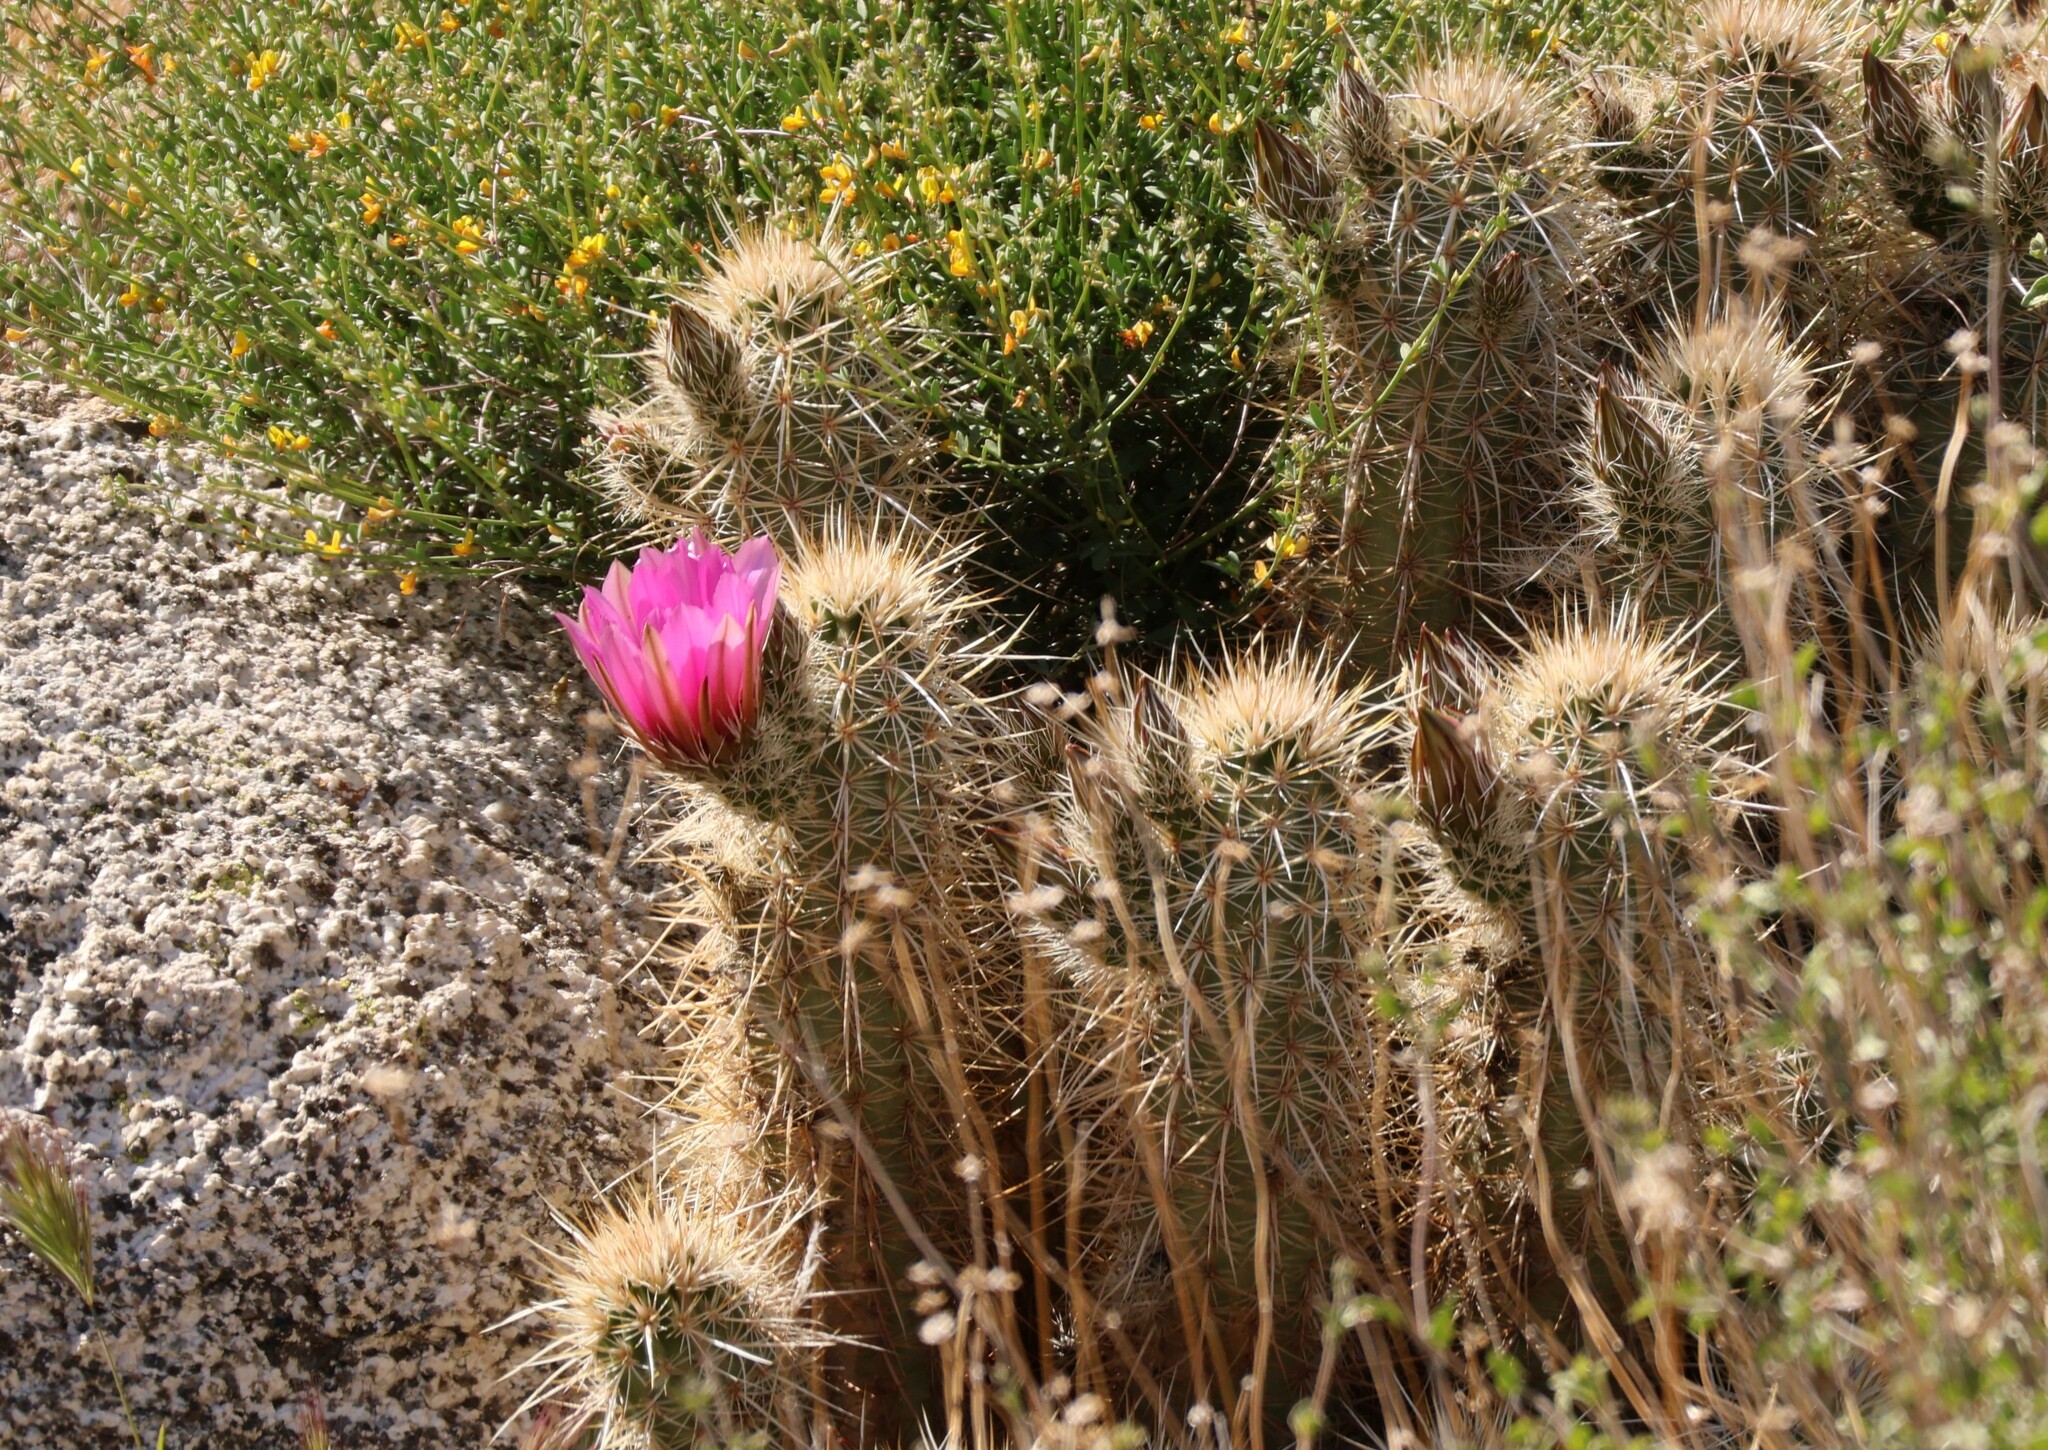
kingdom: Plantae
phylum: Tracheophyta
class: Magnoliopsida
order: Caryophyllales
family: Cactaceae
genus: Echinocereus
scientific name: Echinocereus engelmannii
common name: Engelmann's hedgehog cactus
